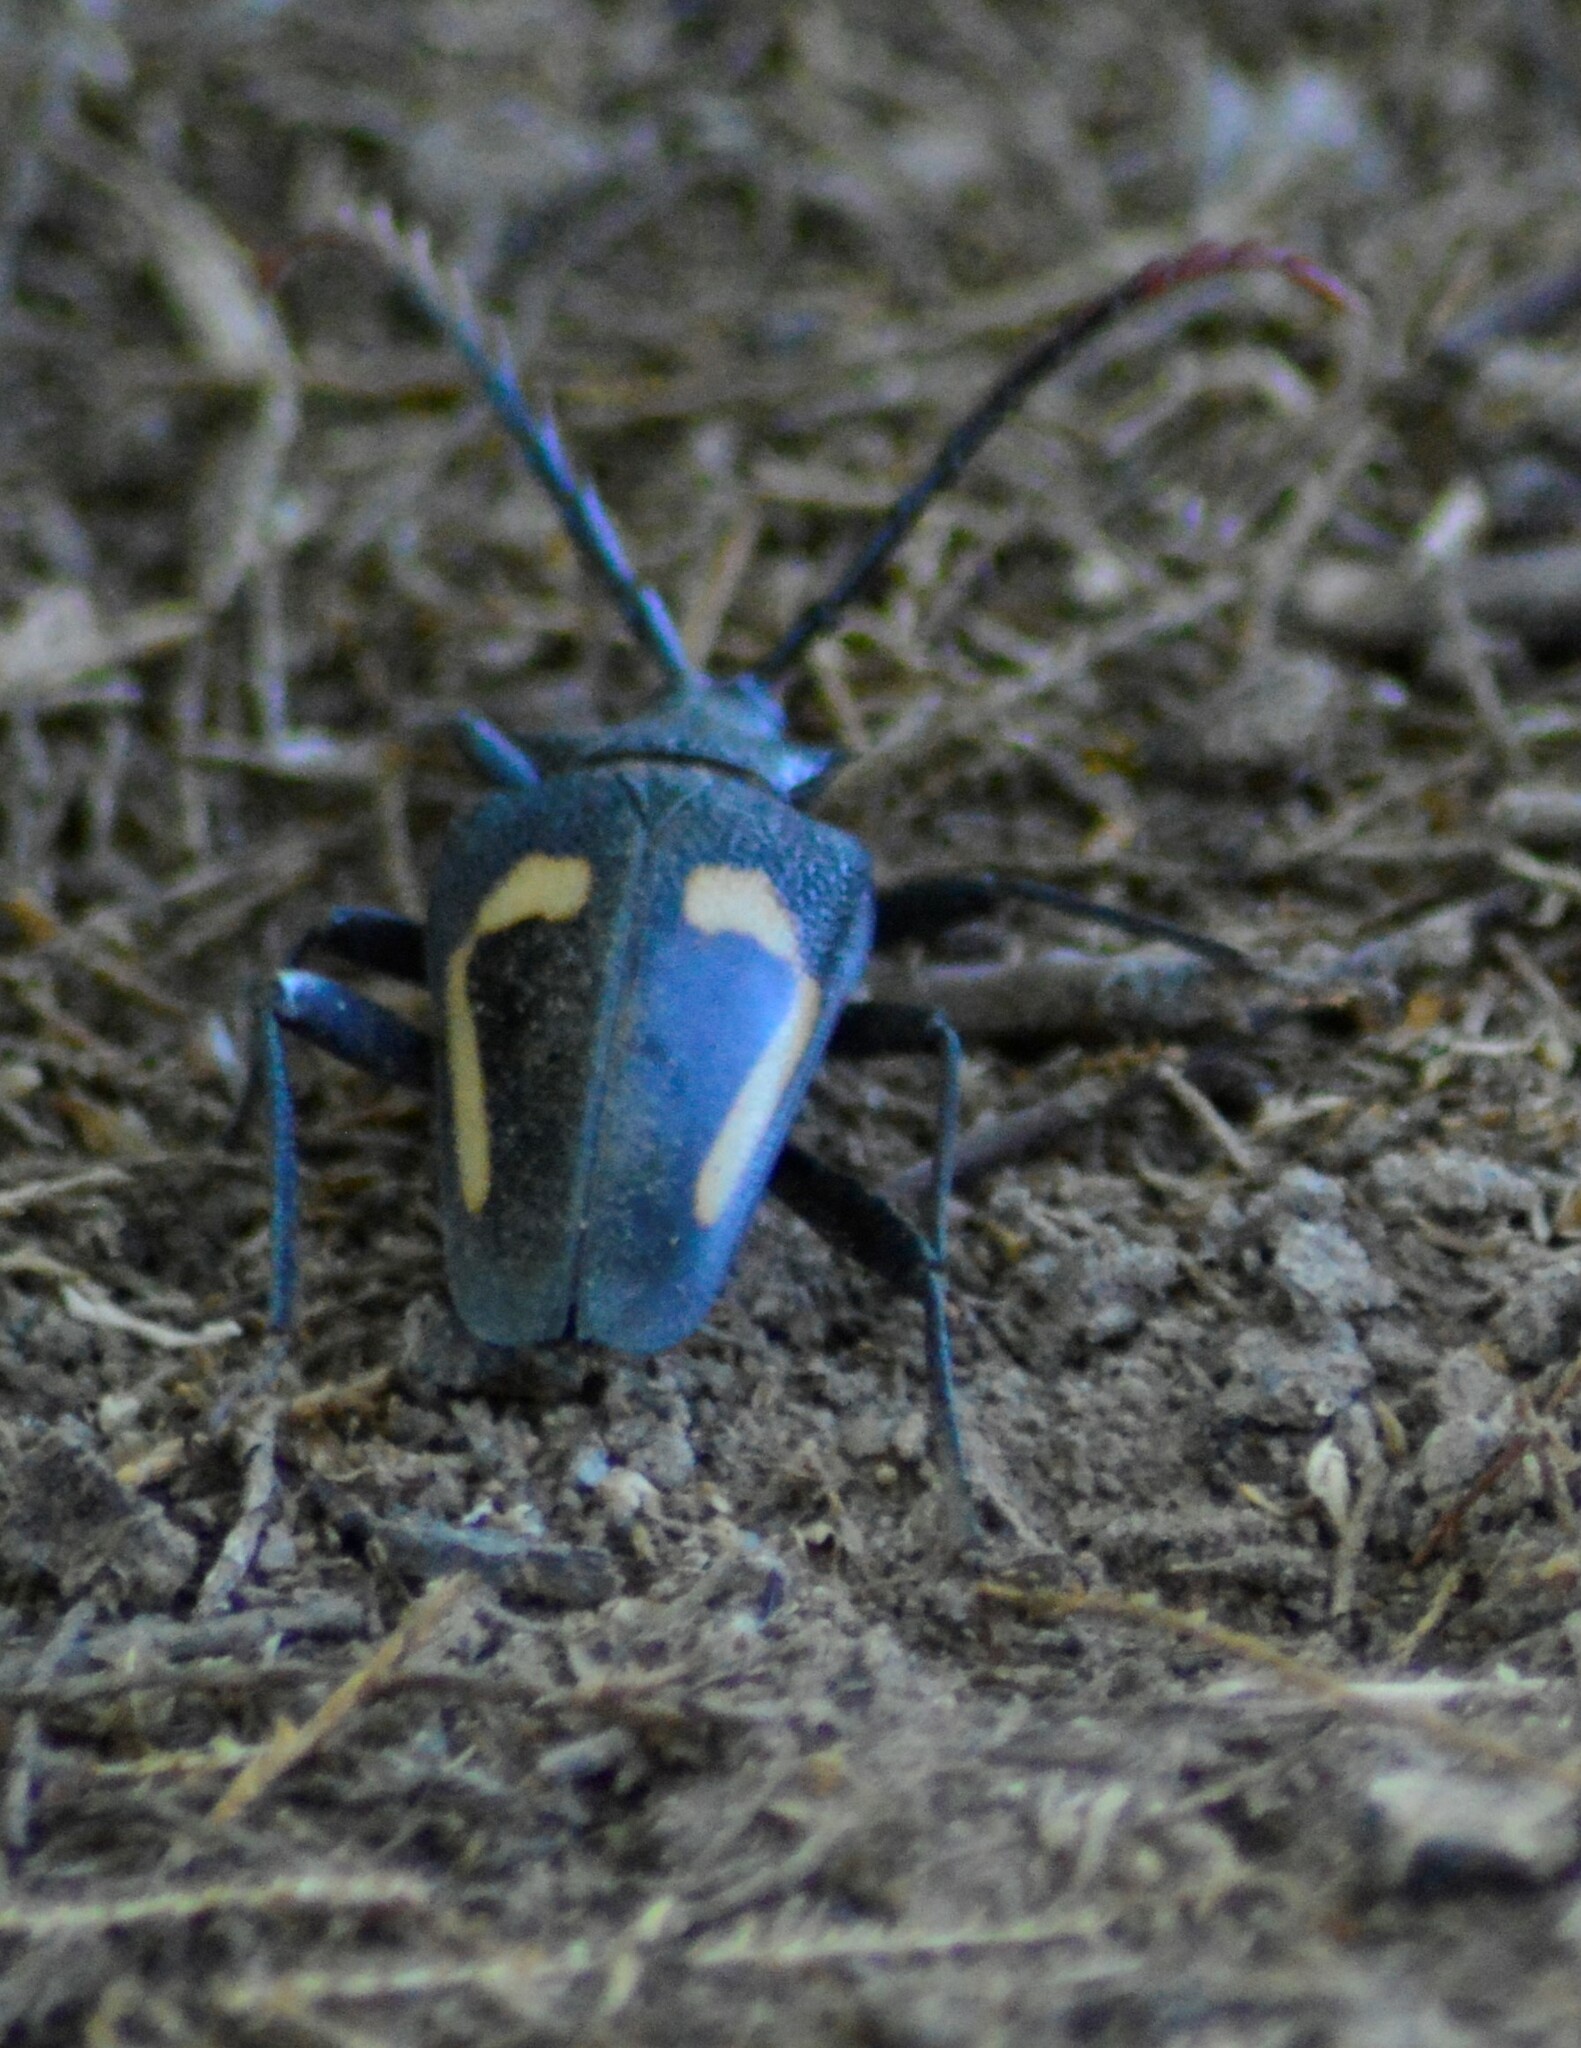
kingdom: Animalia
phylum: Arthropoda
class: Insecta
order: Coleoptera
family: Cerambycidae
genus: Calocomus
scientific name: Calocomus desmarestii
